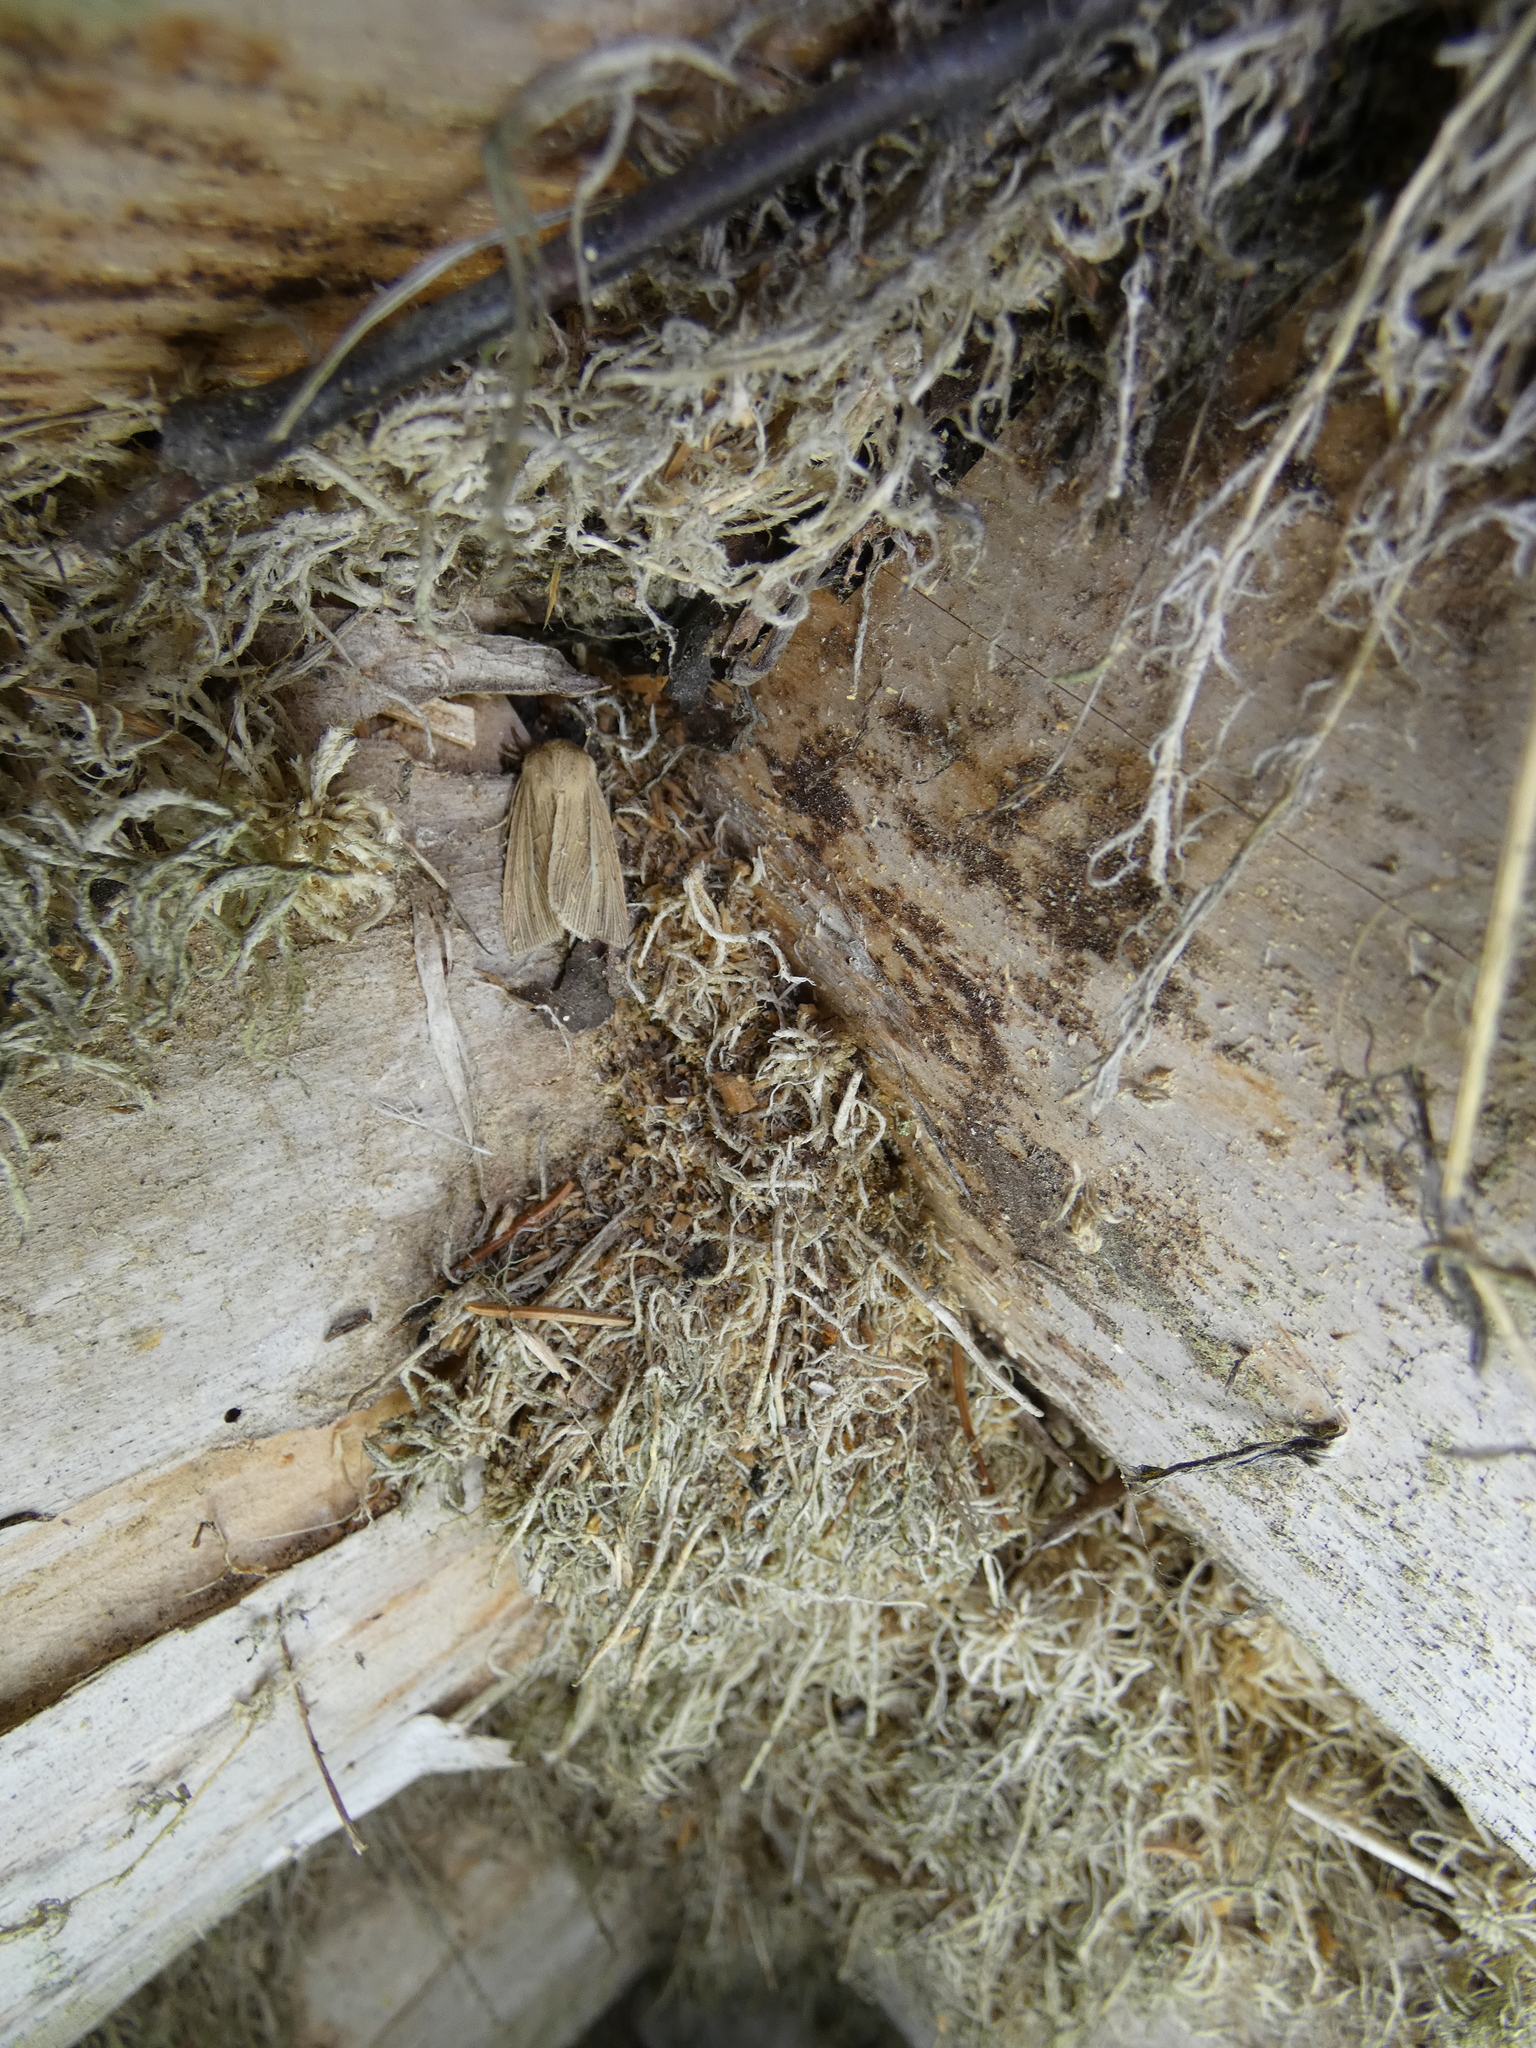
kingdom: Animalia
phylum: Arthropoda
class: Insecta
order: Lepidoptera
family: Noctuidae
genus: Mythimna
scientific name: Mythimna impura
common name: Smoky wainscot
